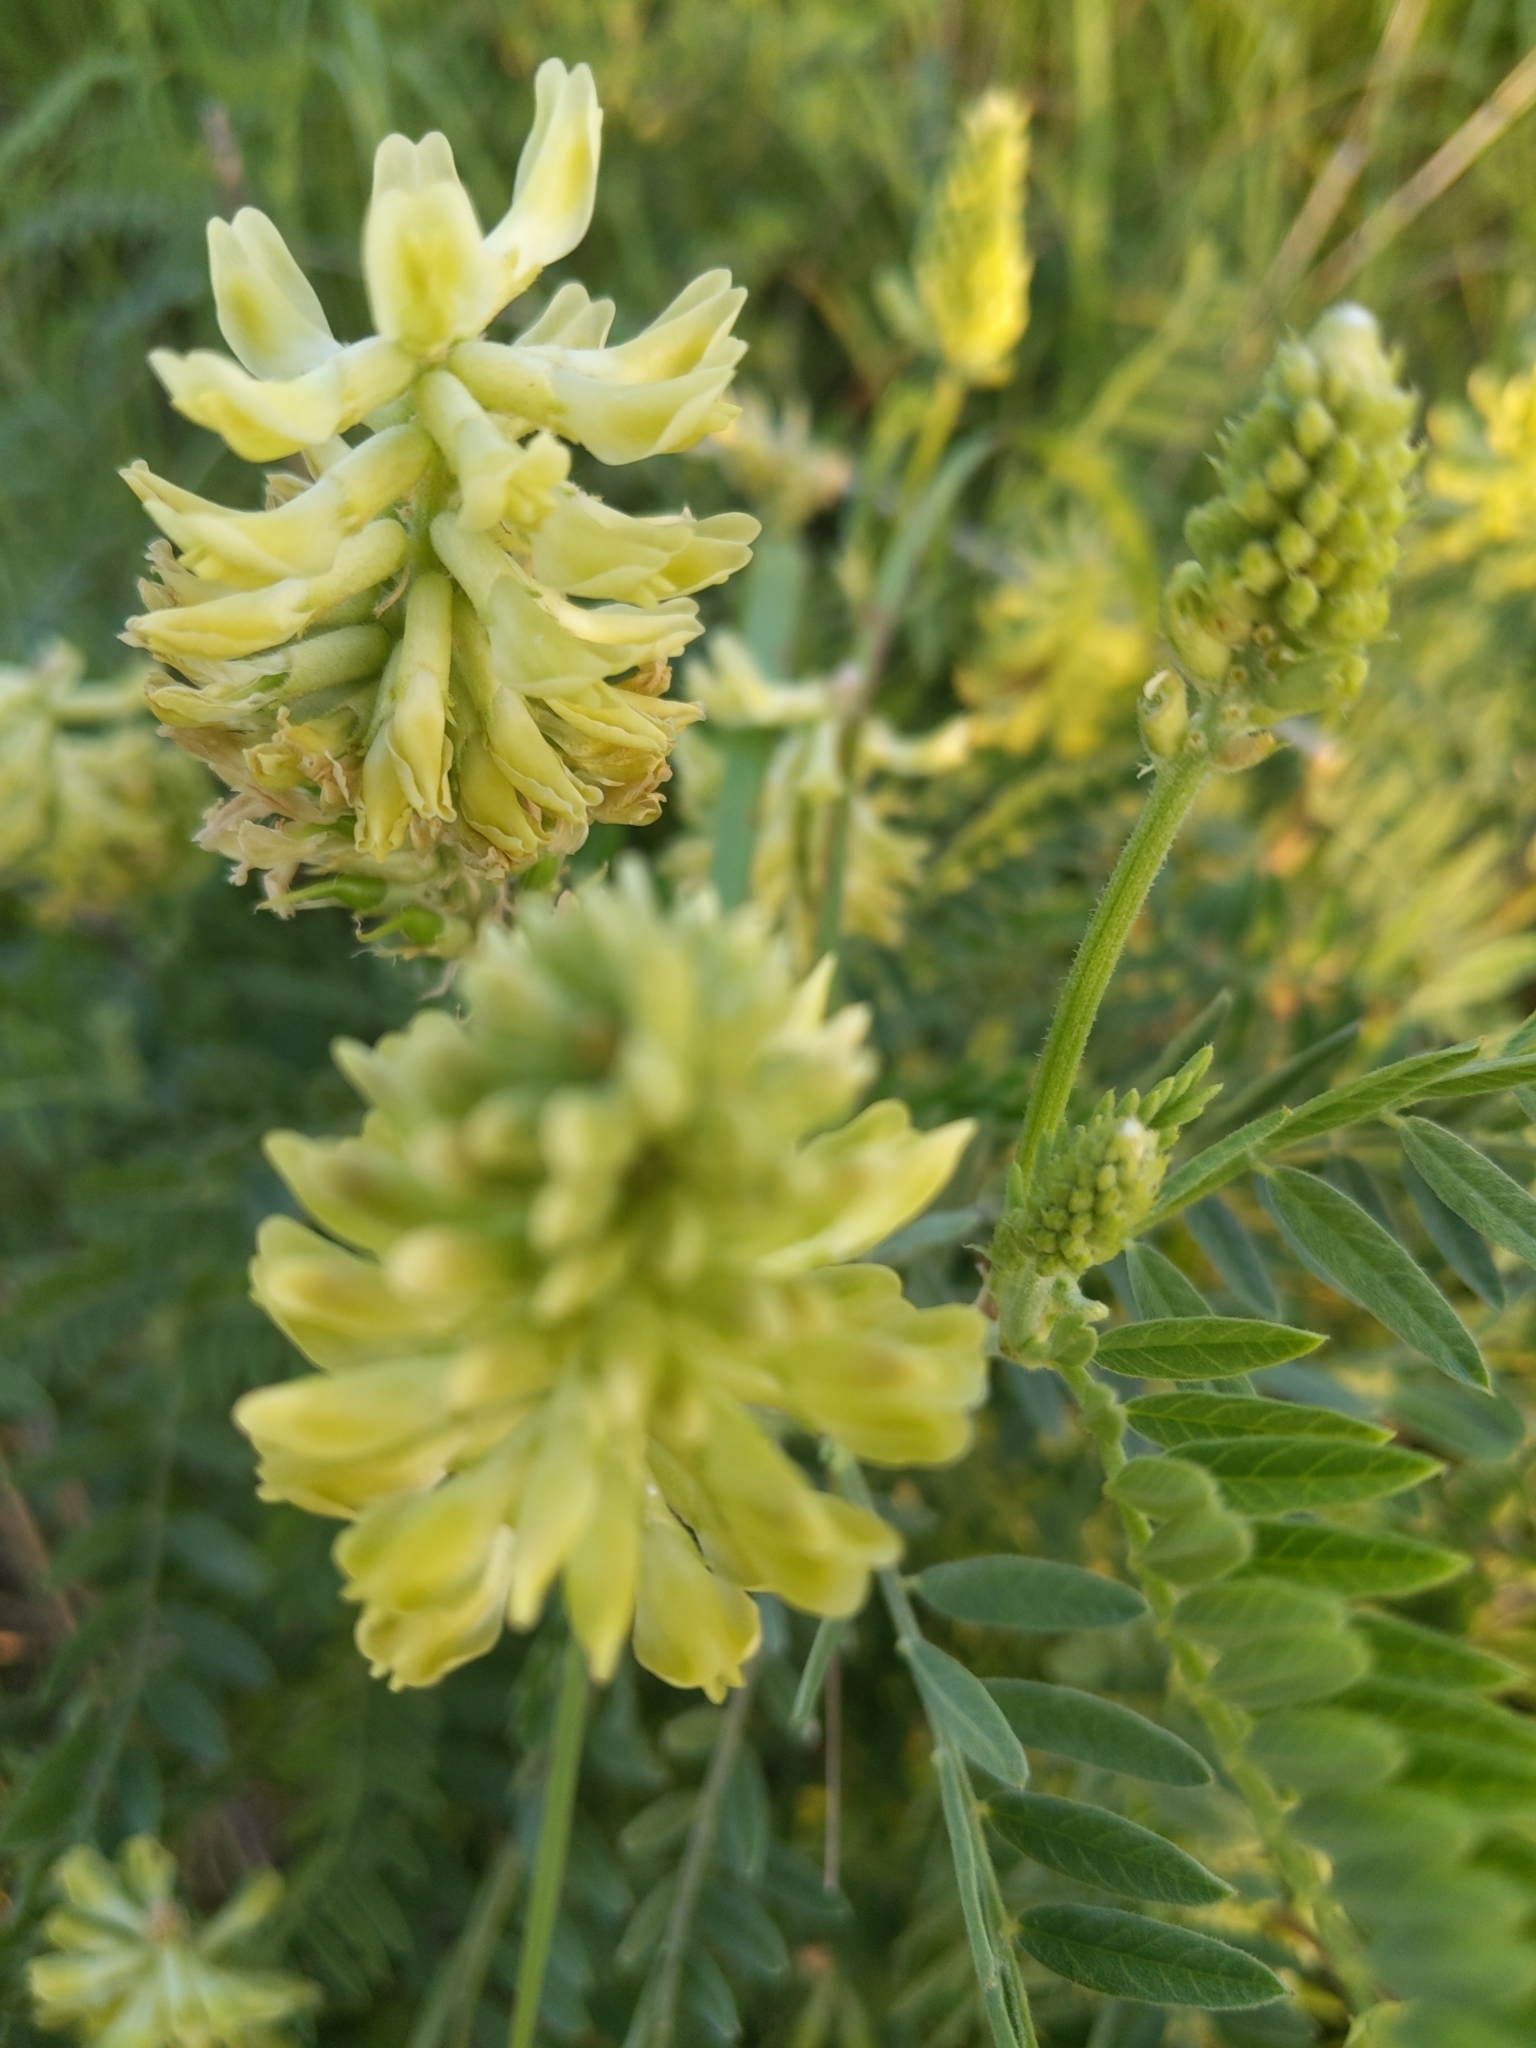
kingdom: Plantae
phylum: Tracheophyta
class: Magnoliopsida
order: Fabales
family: Fabaceae
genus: Astragalus
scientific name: Astragalus canadensis
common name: Canada milk-vetch
